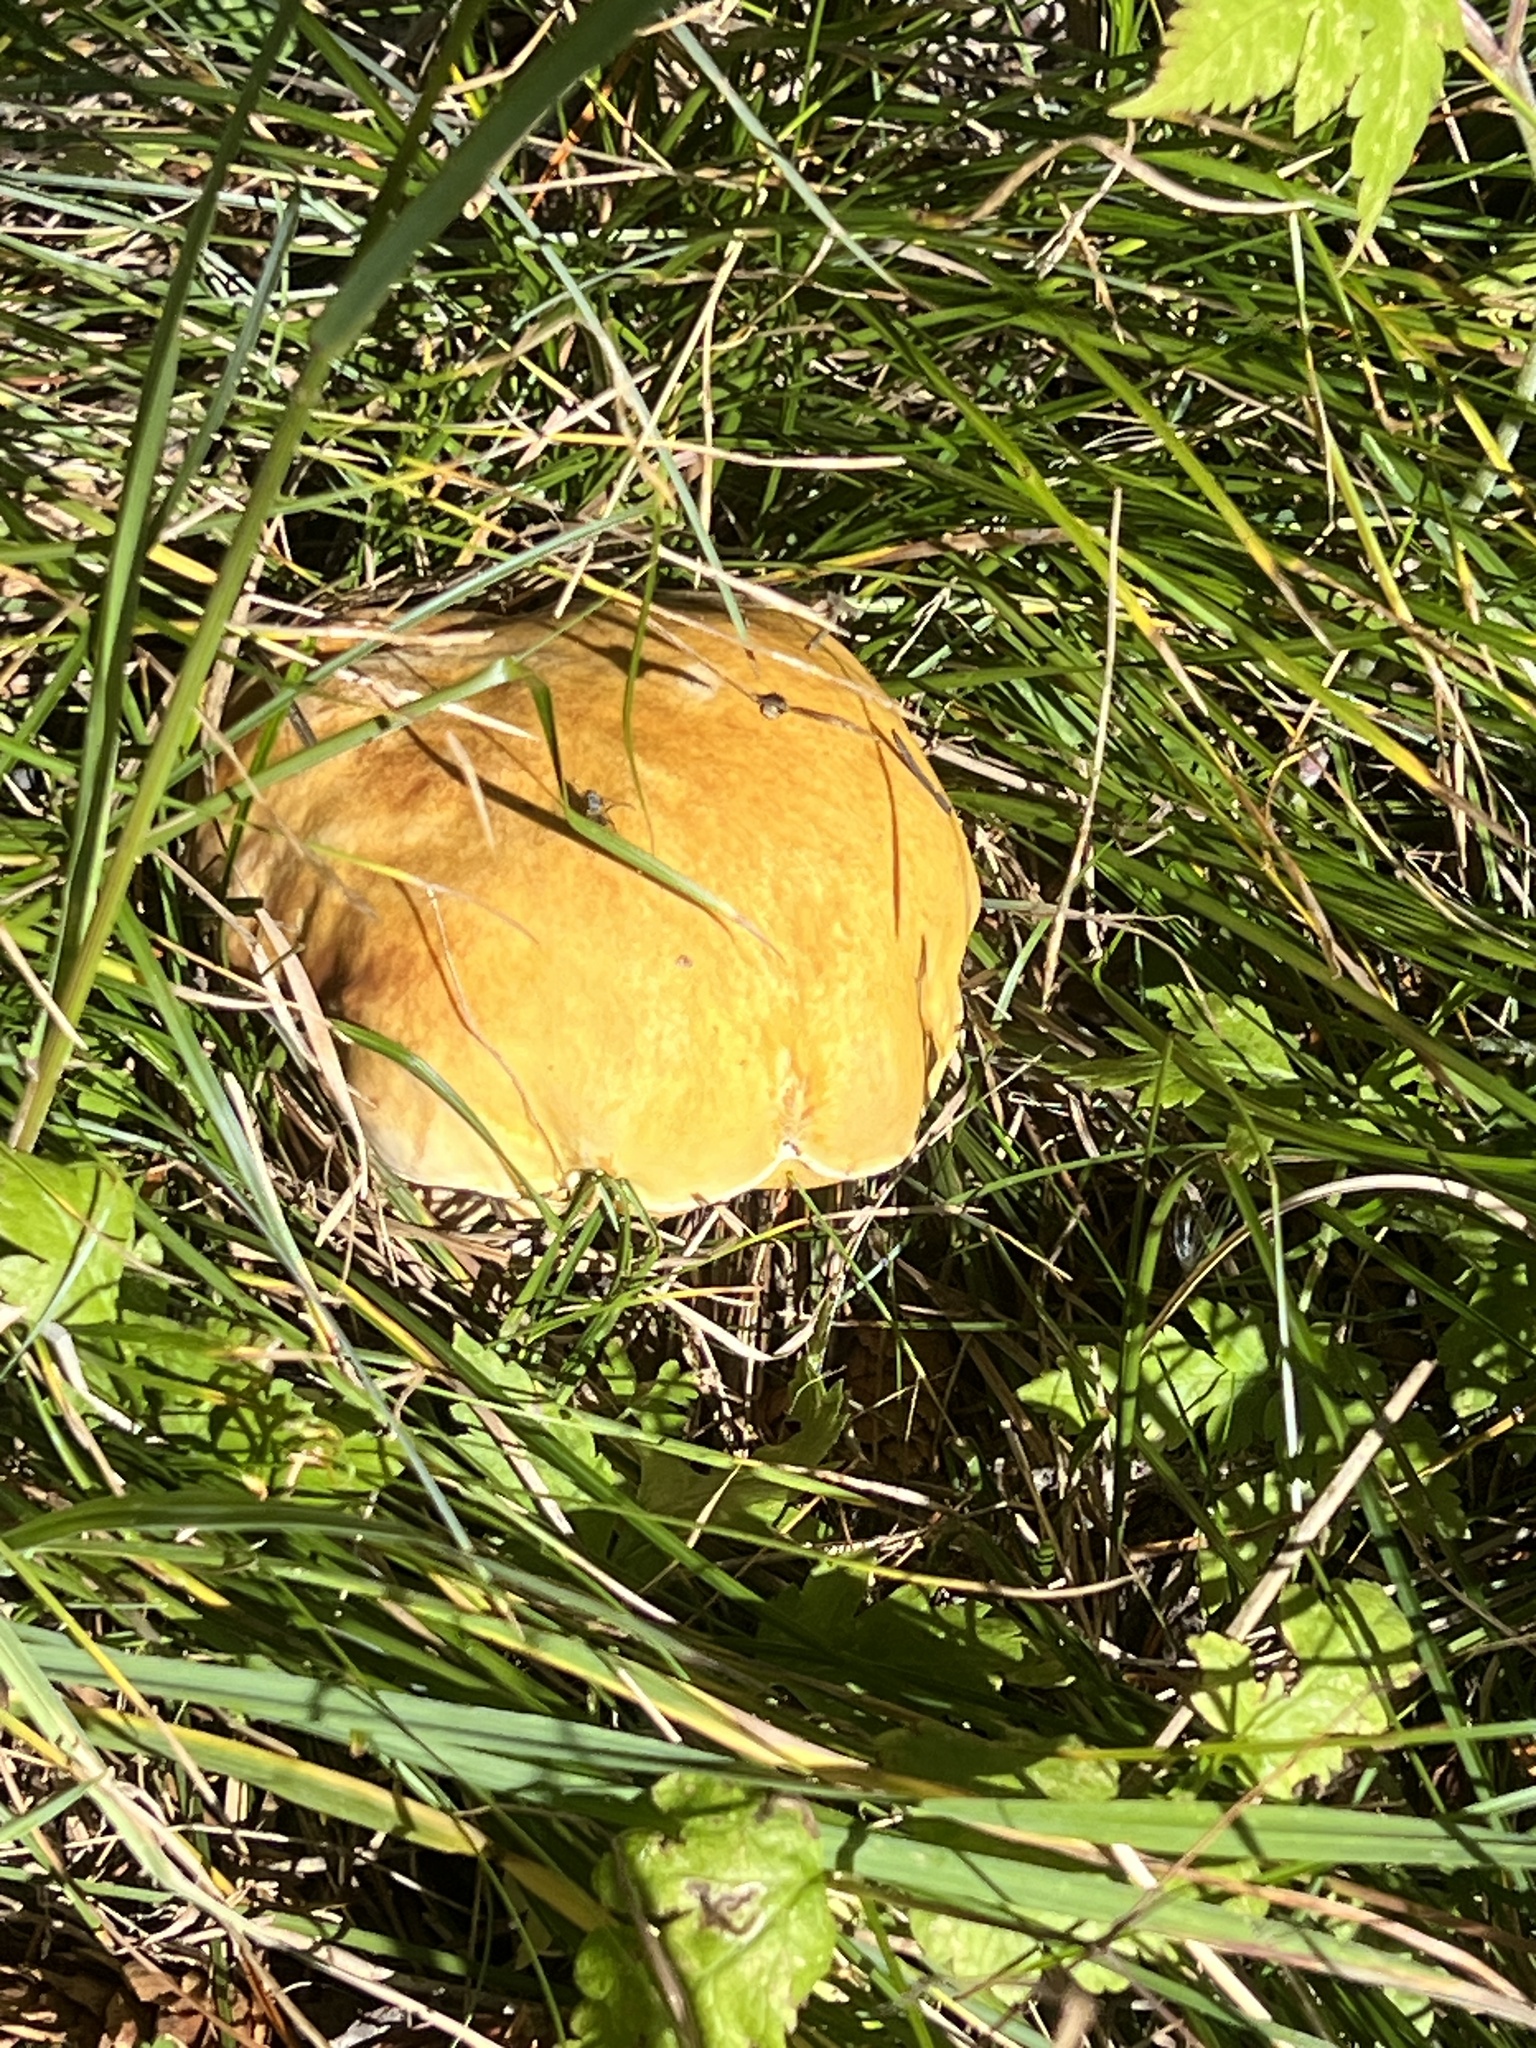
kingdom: Fungi
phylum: Basidiomycota
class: Agaricomycetes
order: Boletales
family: Boletaceae
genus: Boletus
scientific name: Boletus edulis
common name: Cep
